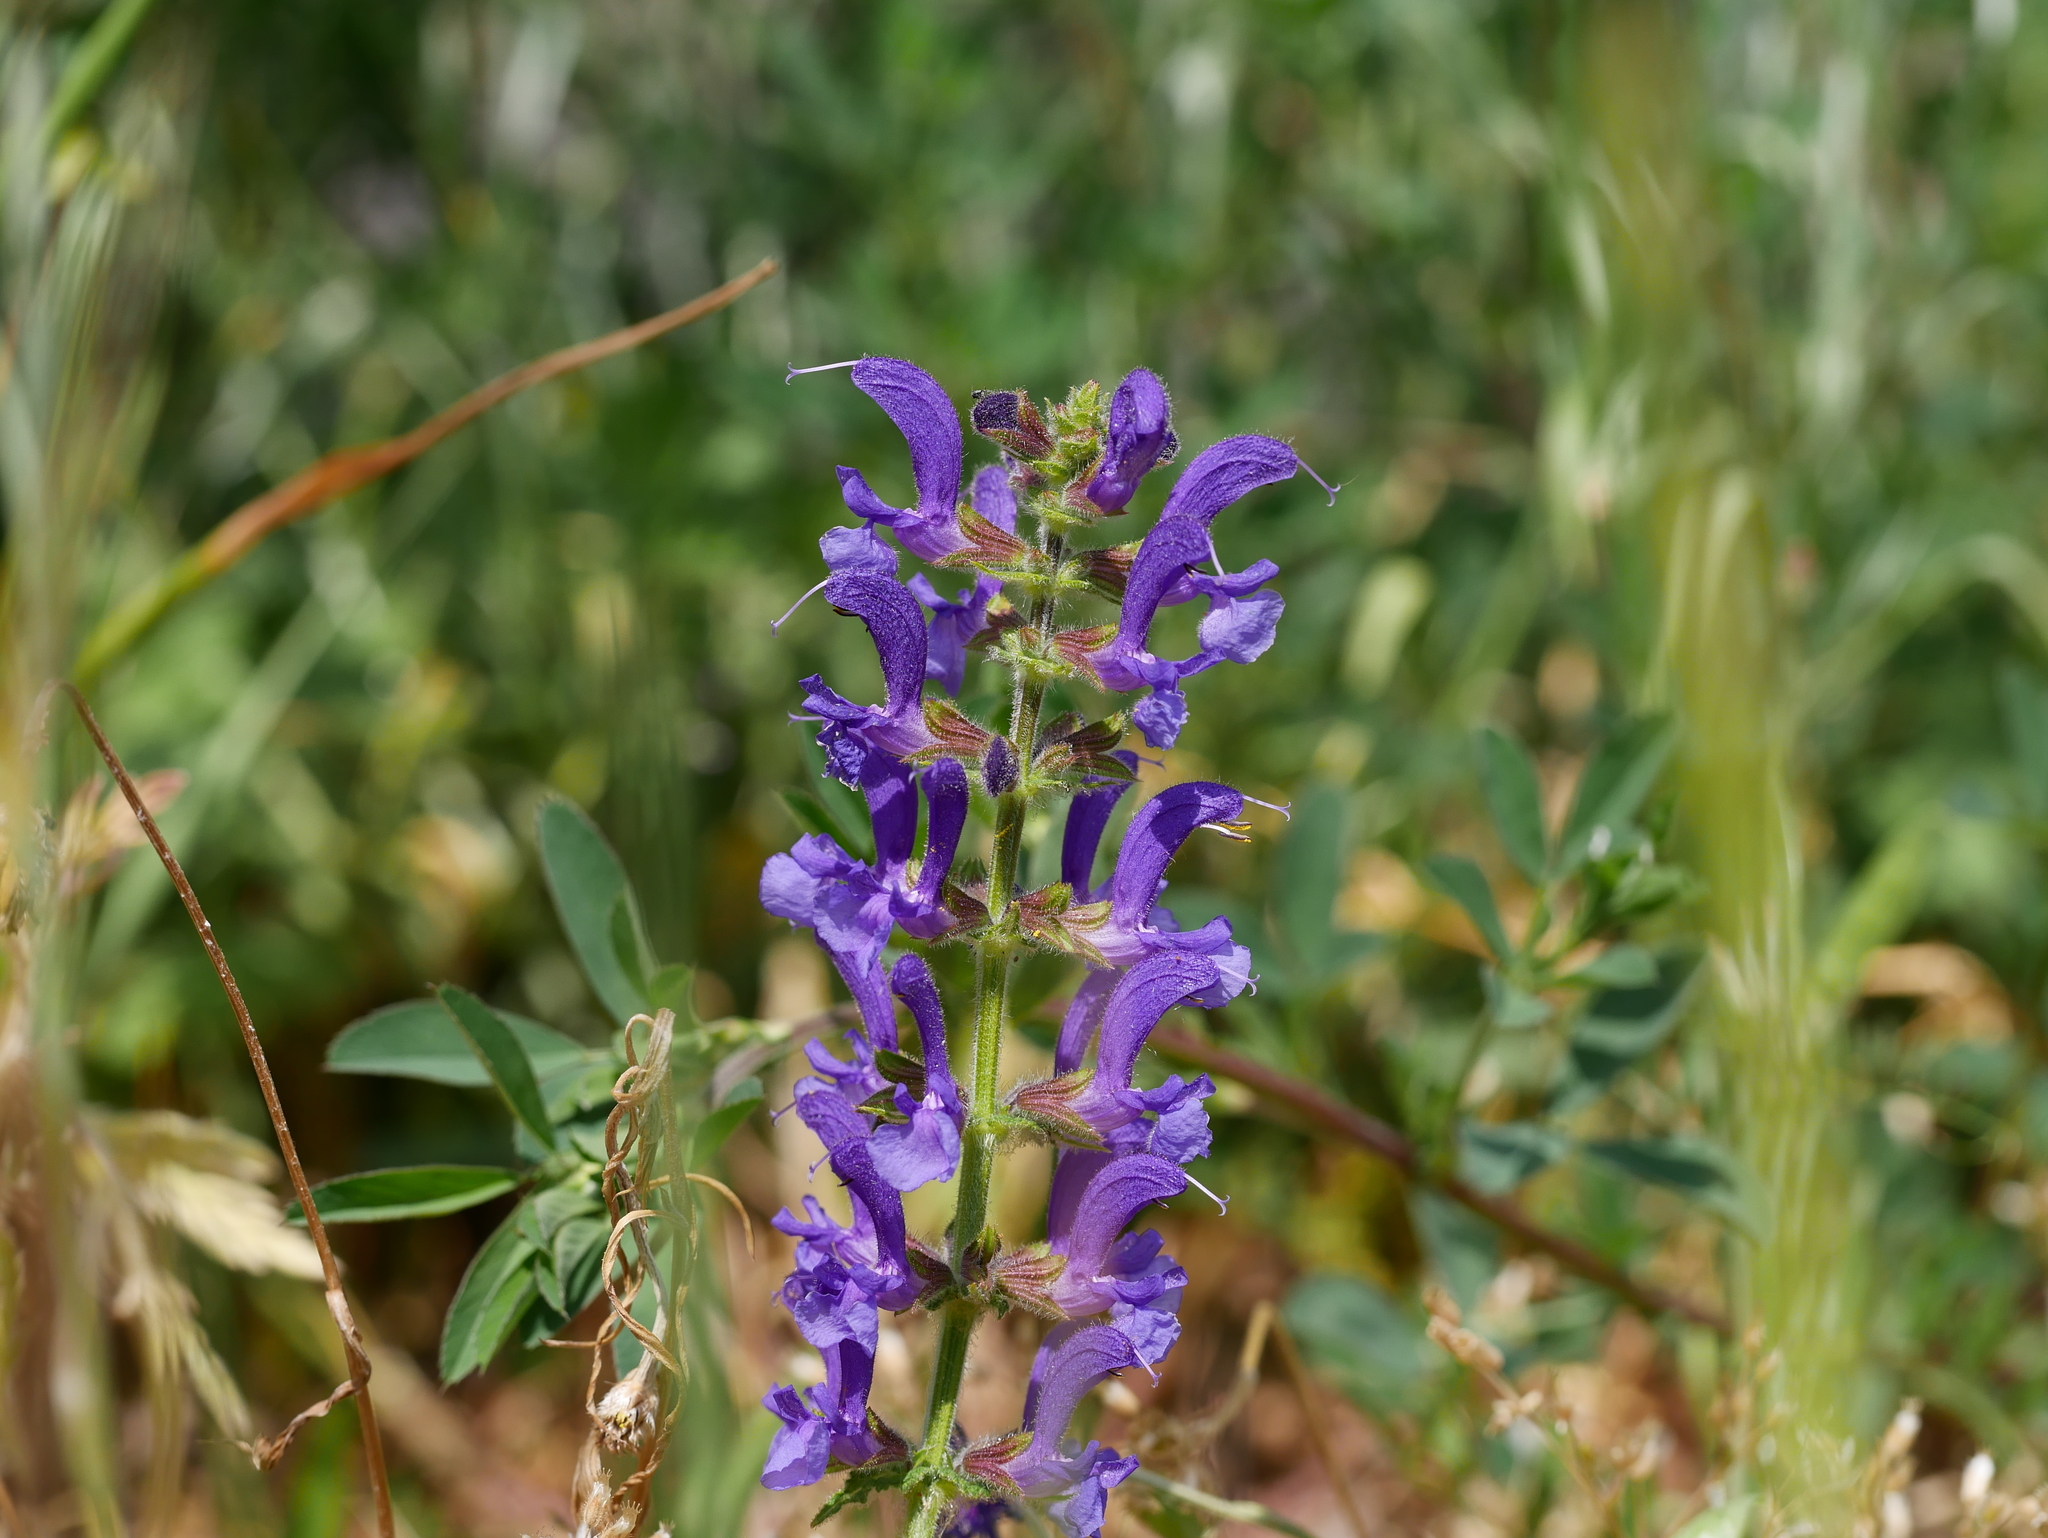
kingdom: Plantae
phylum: Tracheophyta
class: Magnoliopsida
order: Lamiales
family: Lamiaceae
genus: Salvia
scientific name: Salvia pratensis
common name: Meadow sage
